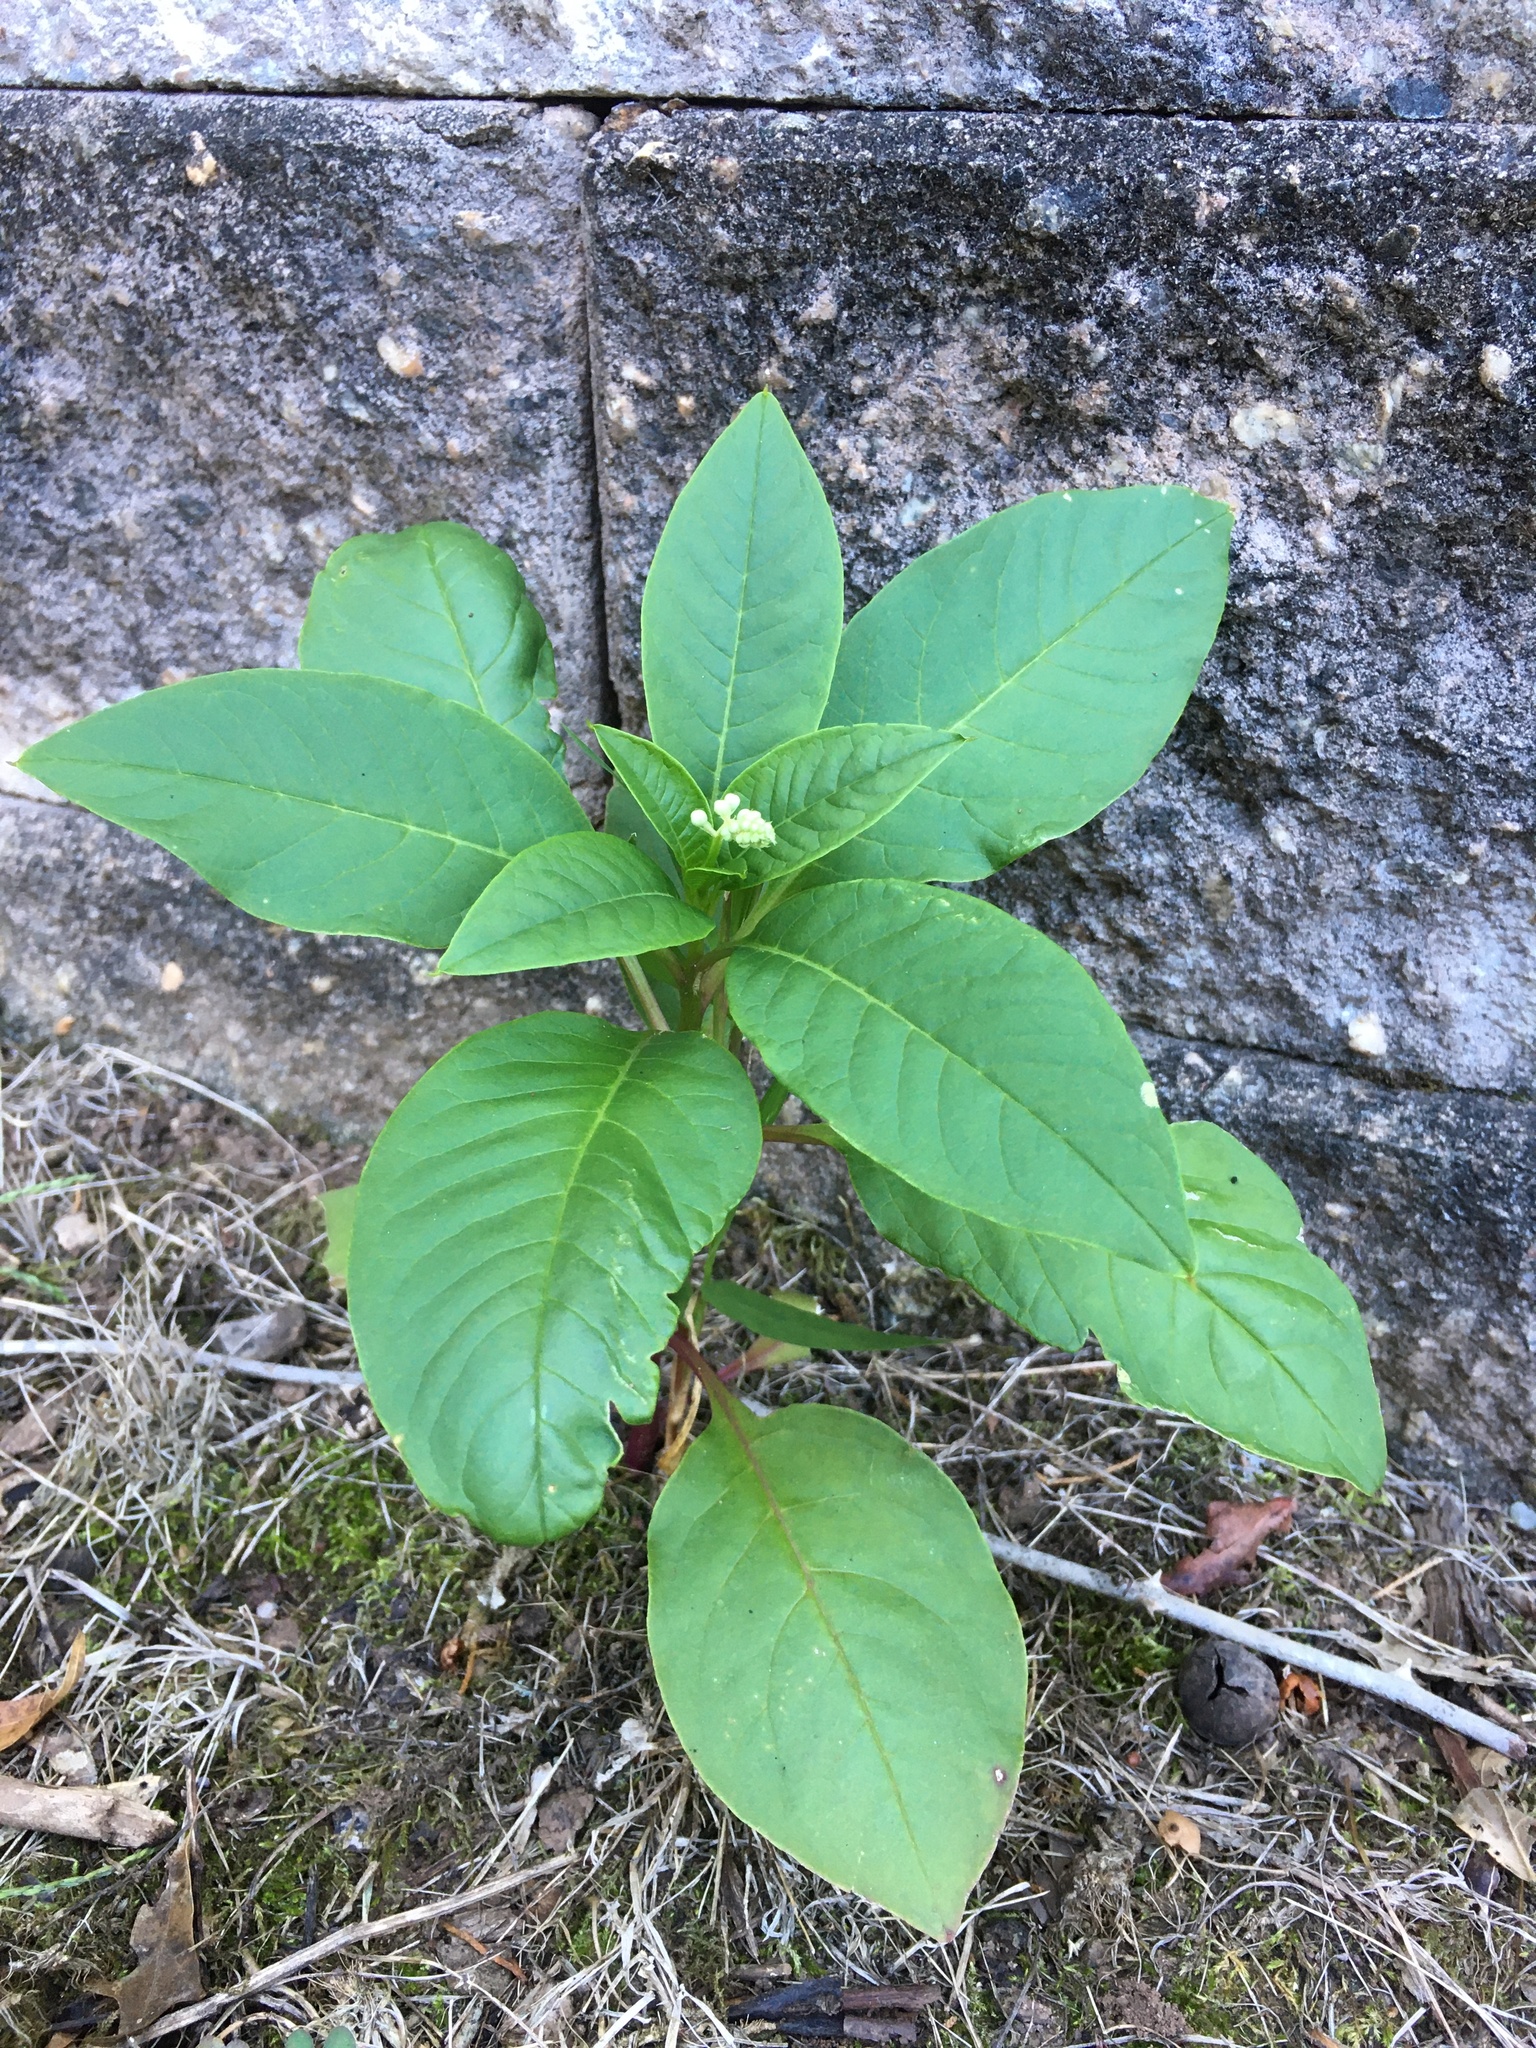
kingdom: Plantae
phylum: Tracheophyta
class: Magnoliopsida
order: Caryophyllales
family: Phytolaccaceae
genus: Phytolacca
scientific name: Phytolacca americana
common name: American pokeweed
